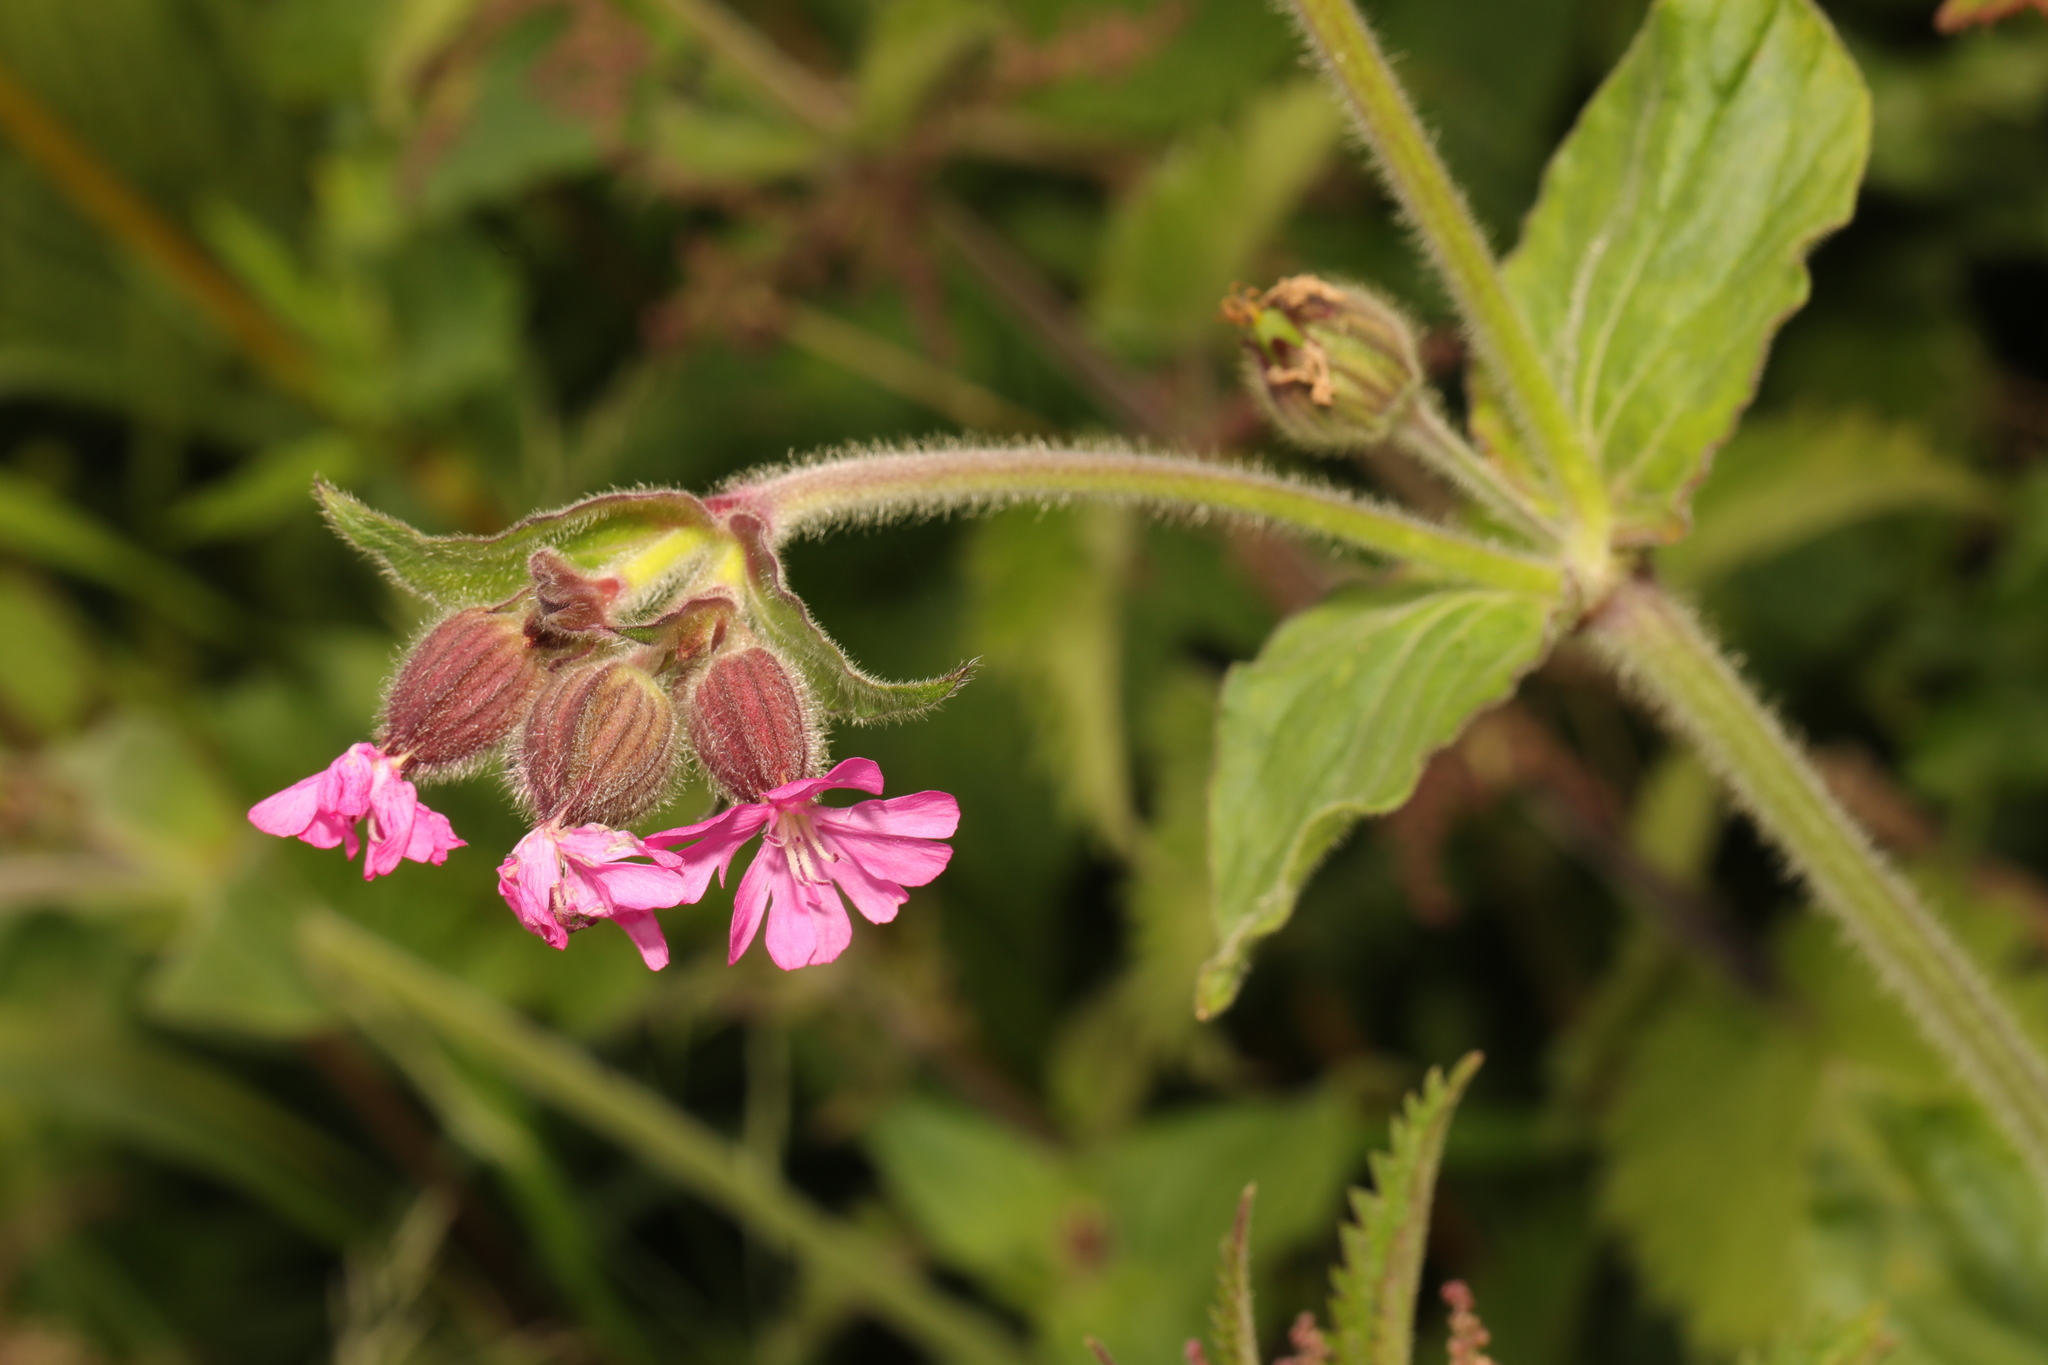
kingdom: Plantae
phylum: Tracheophyta
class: Magnoliopsida
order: Caryophyllales
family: Caryophyllaceae
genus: Silene
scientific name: Silene dioica
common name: Red campion
